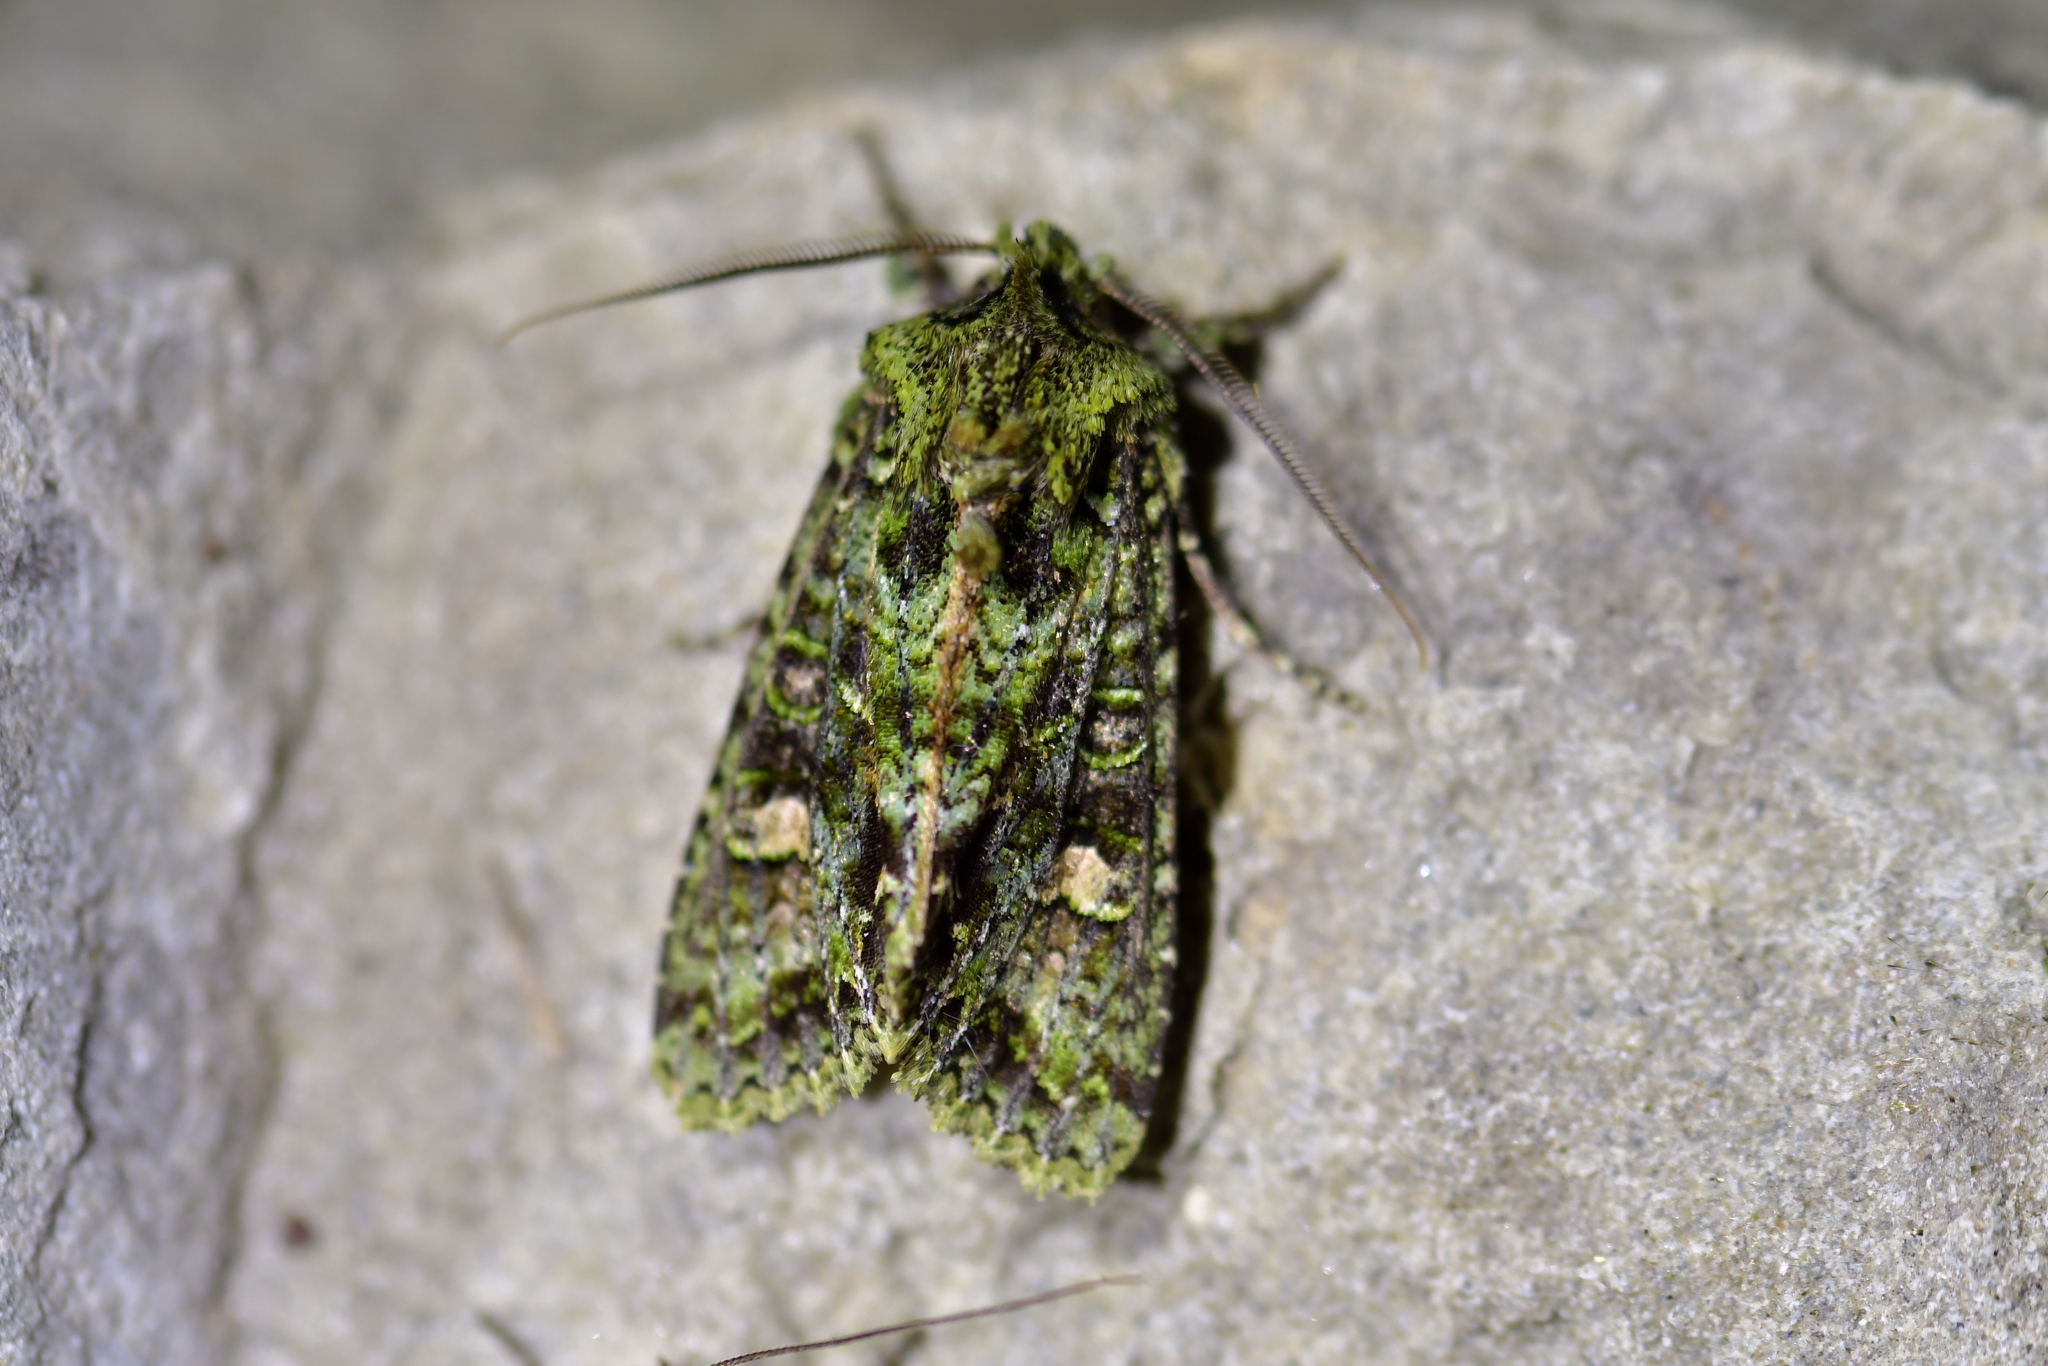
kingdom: Animalia
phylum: Arthropoda
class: Insecta
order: Lepidoptera
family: Noctuidae
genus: Ichneutica
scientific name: Ichneutica
